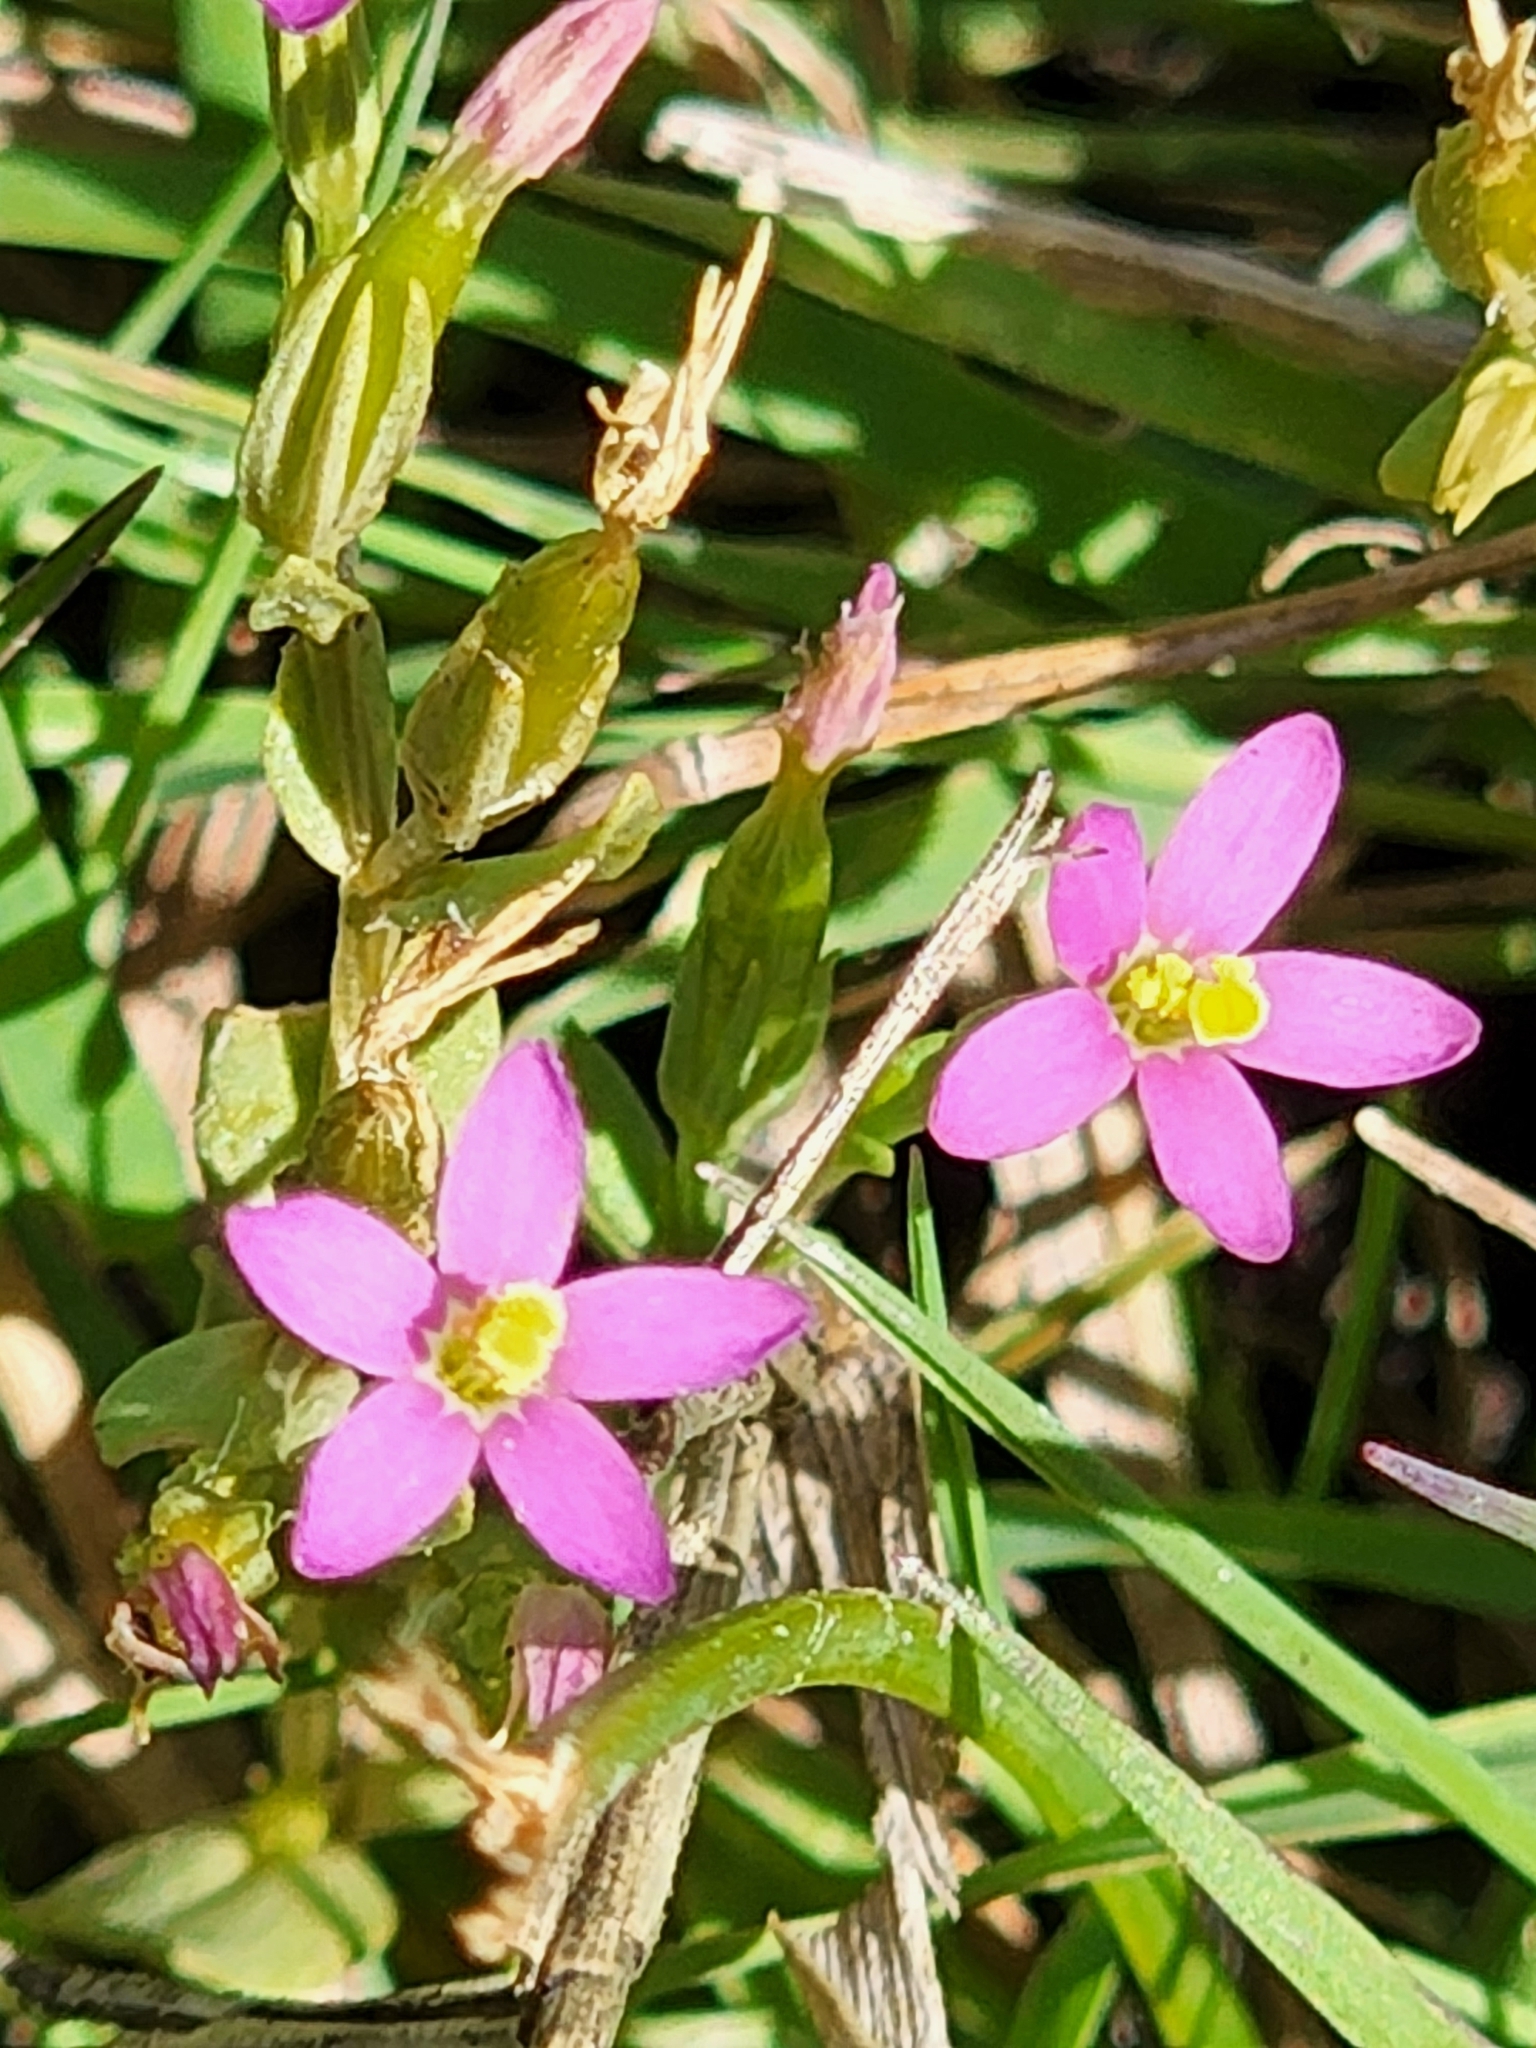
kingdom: Plantae
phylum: Tracheophyta
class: Magnoliopsida
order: Gentianales
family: Gentianaceae
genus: Centaurium
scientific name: Centaurium pulchellum
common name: Lesser centaury
